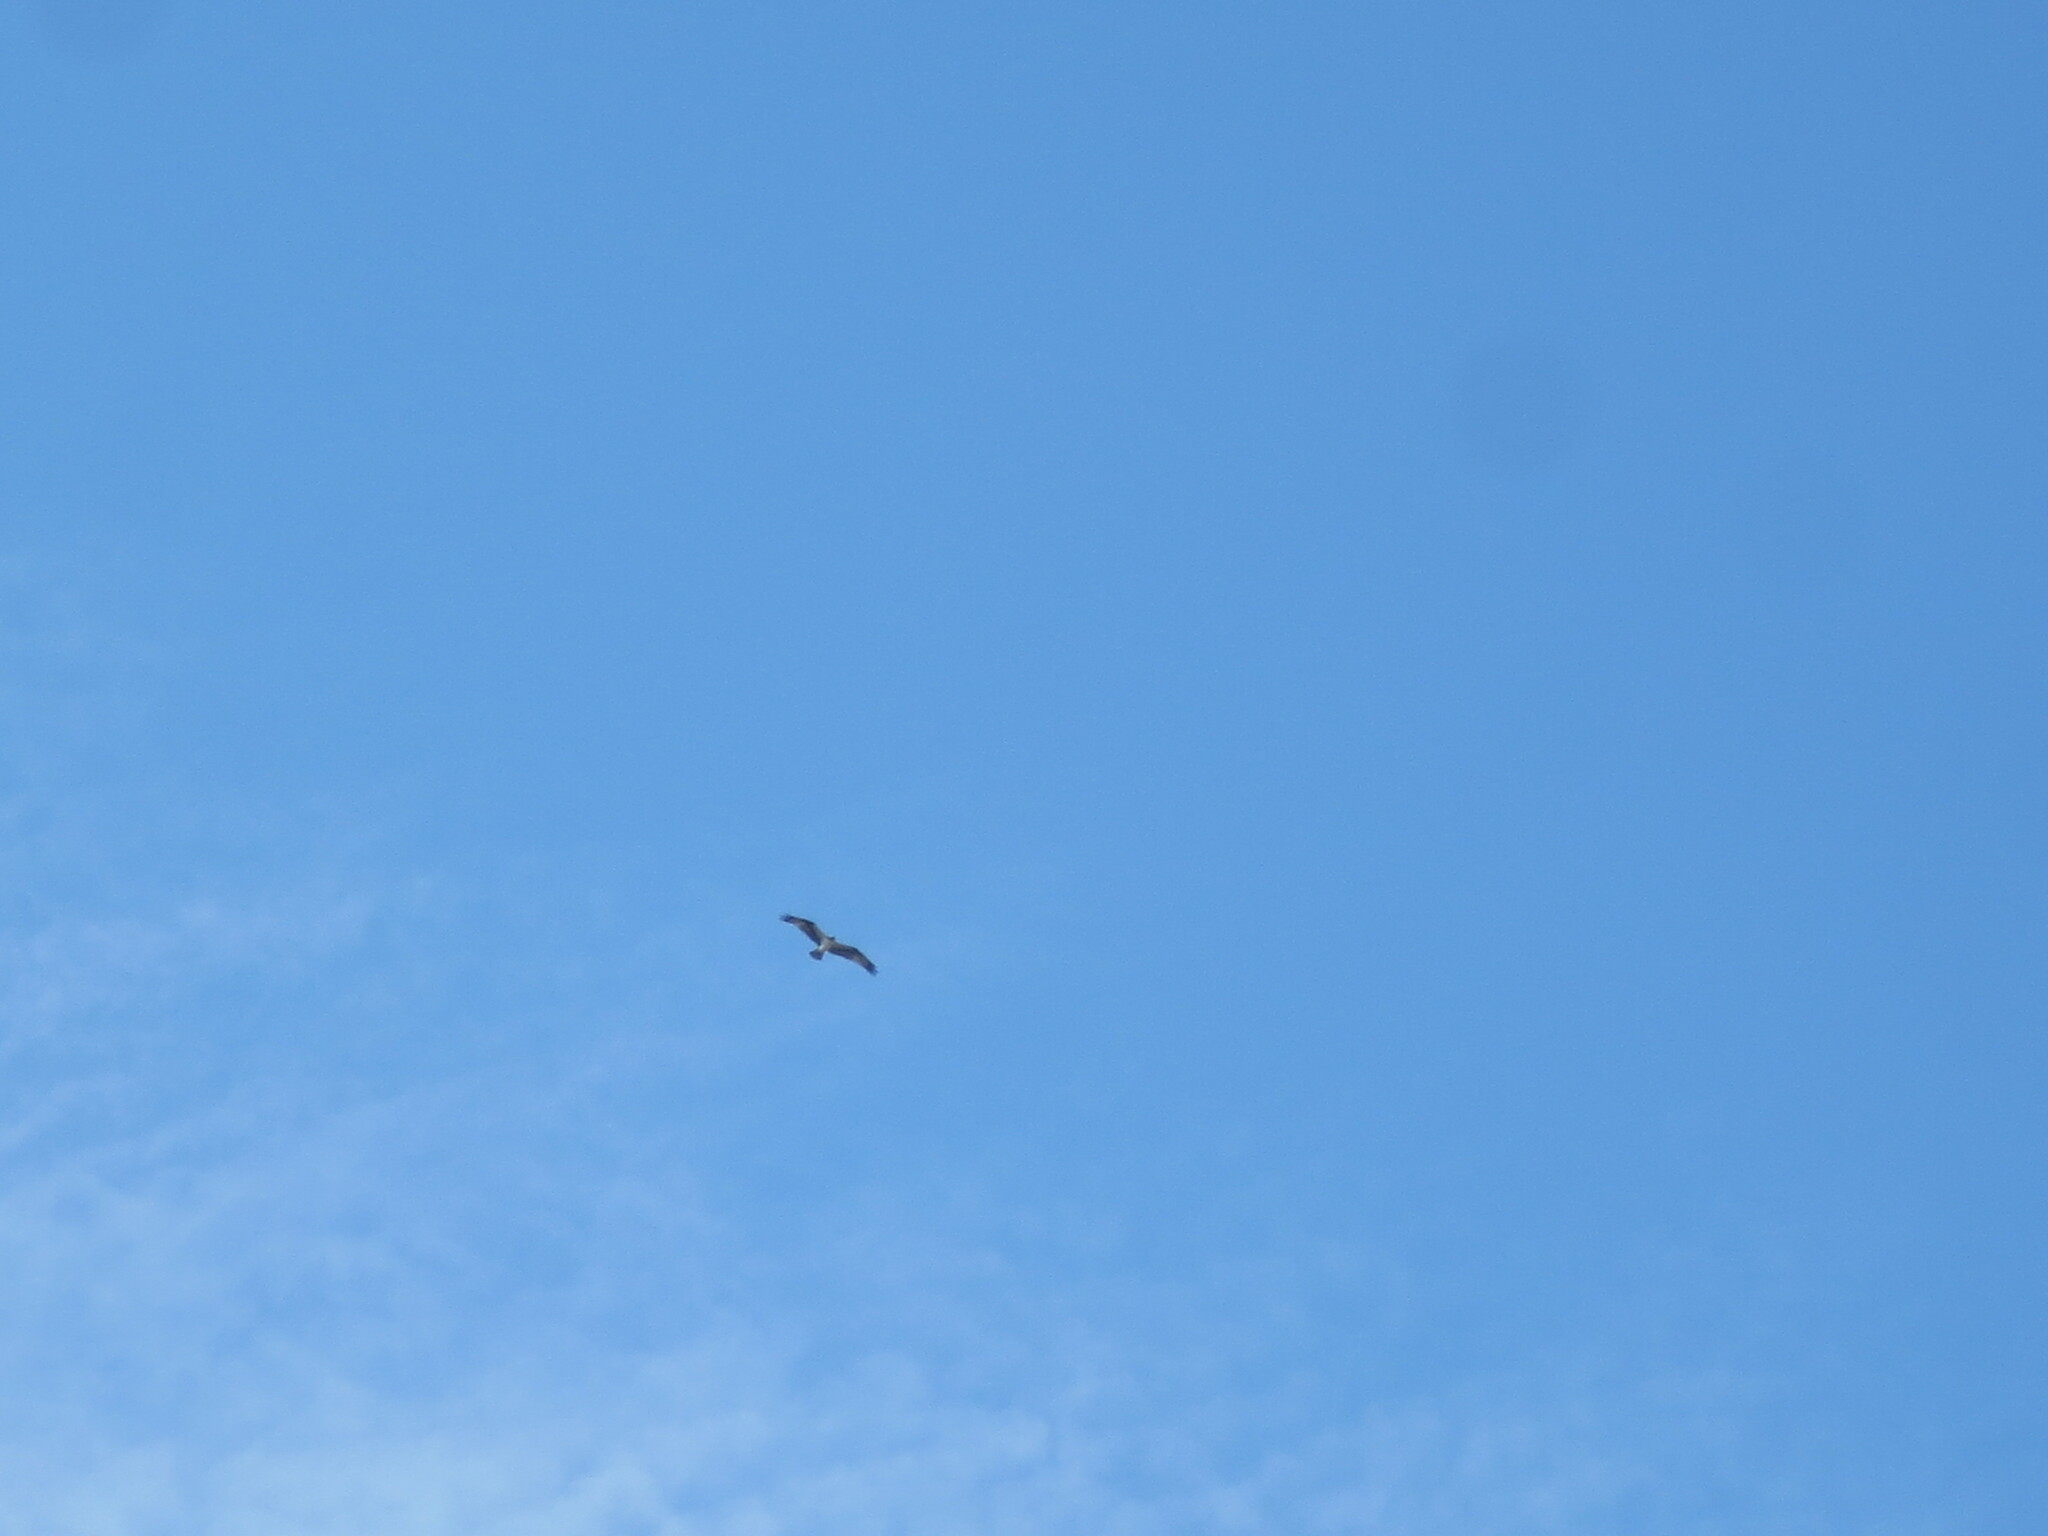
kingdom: Animalia
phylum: Chordata
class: Aves
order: Accipitriformes
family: Pandionidae
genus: Pandion
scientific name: Pandion haliaetus
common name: Osprey
